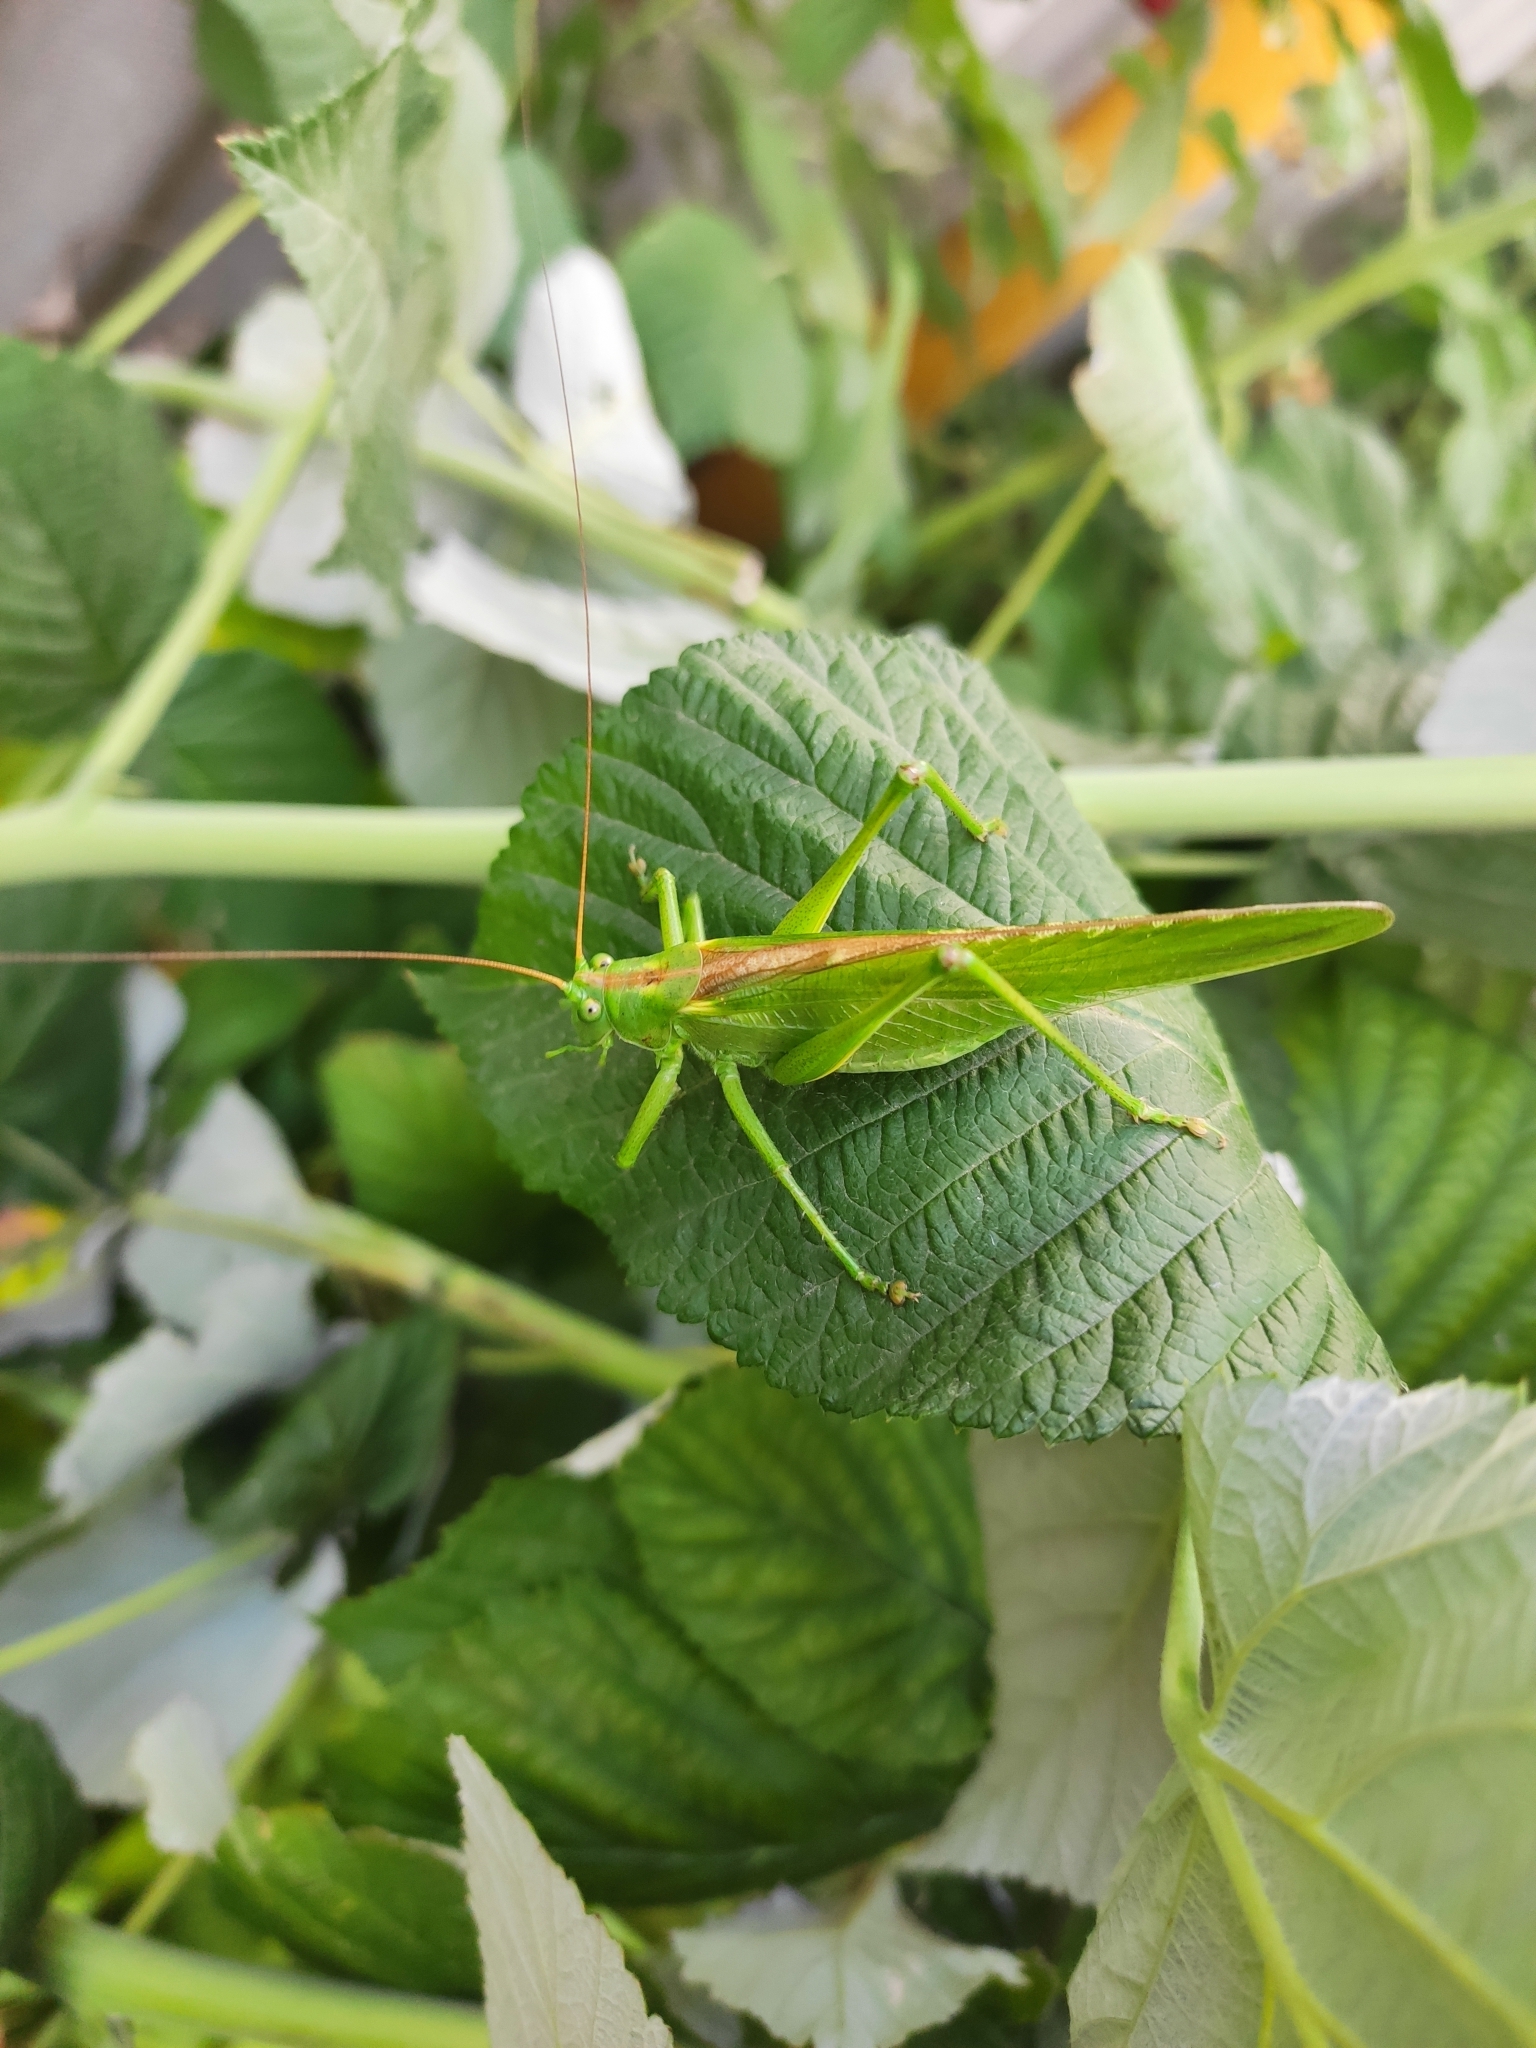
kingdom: Animalia
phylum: Arthropoda
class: Insecta
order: Orthoptera
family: Tettigoniidae
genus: Tettigonia
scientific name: Tettigonia viridissima
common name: Great green bush-cricket
